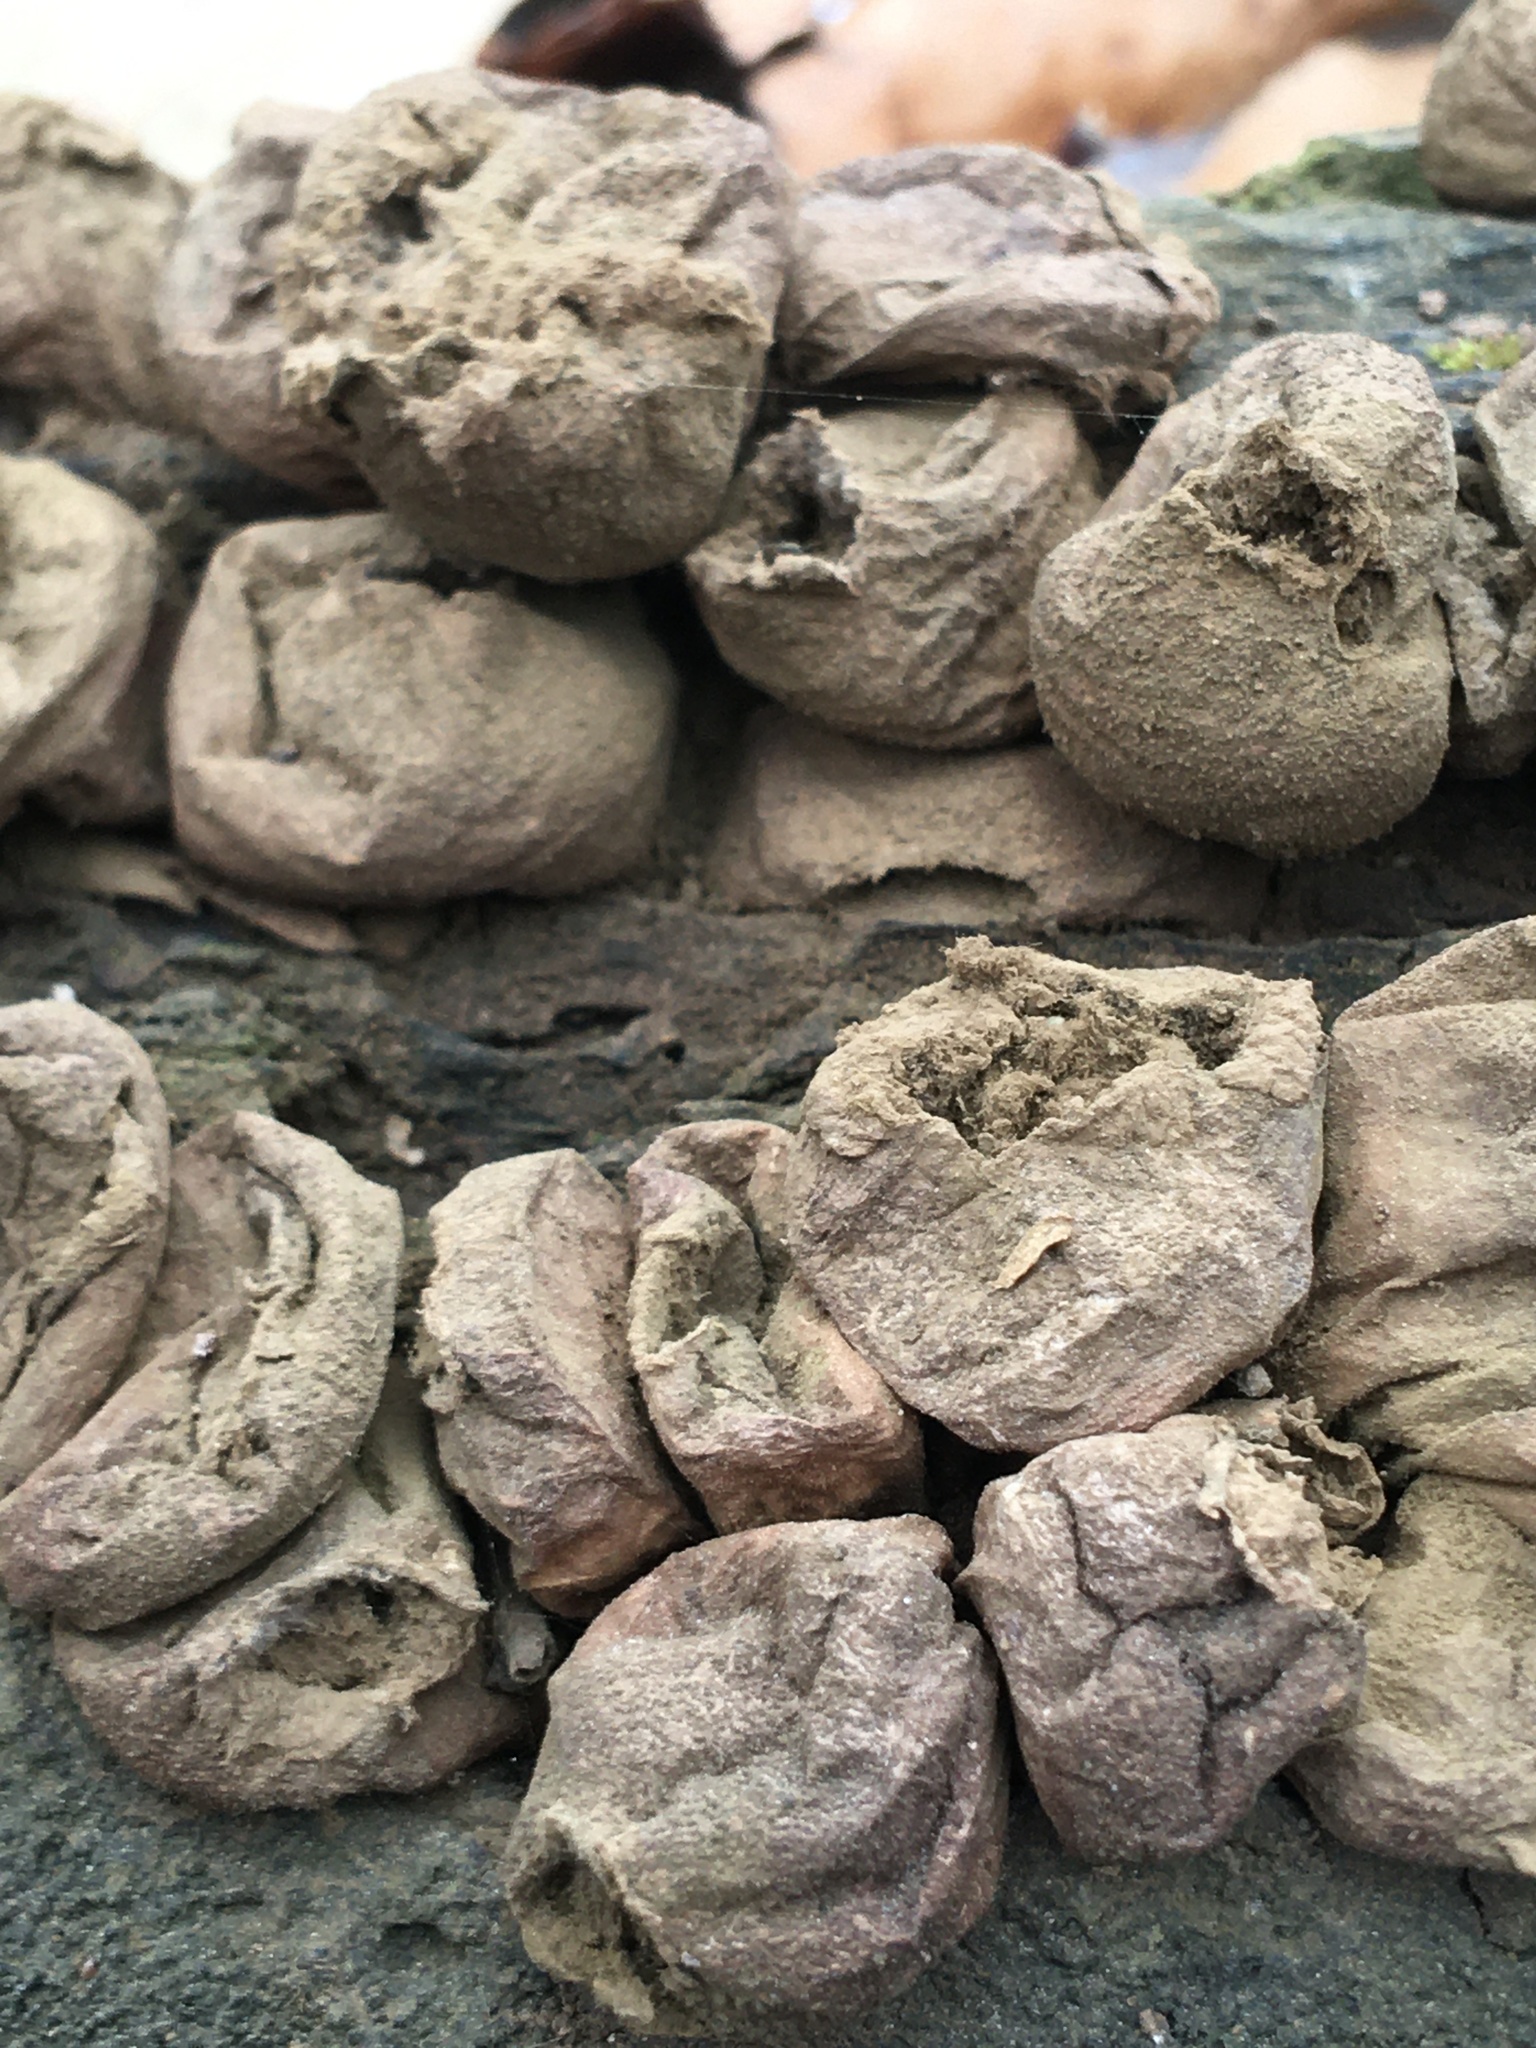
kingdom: Fungi
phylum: Basidiomycota
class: Agaricomycetes
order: Agaricales
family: Lycoperdaceae
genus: Apioperdon
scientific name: Apioperdon pyriforme
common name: Pear-shaped puffball
